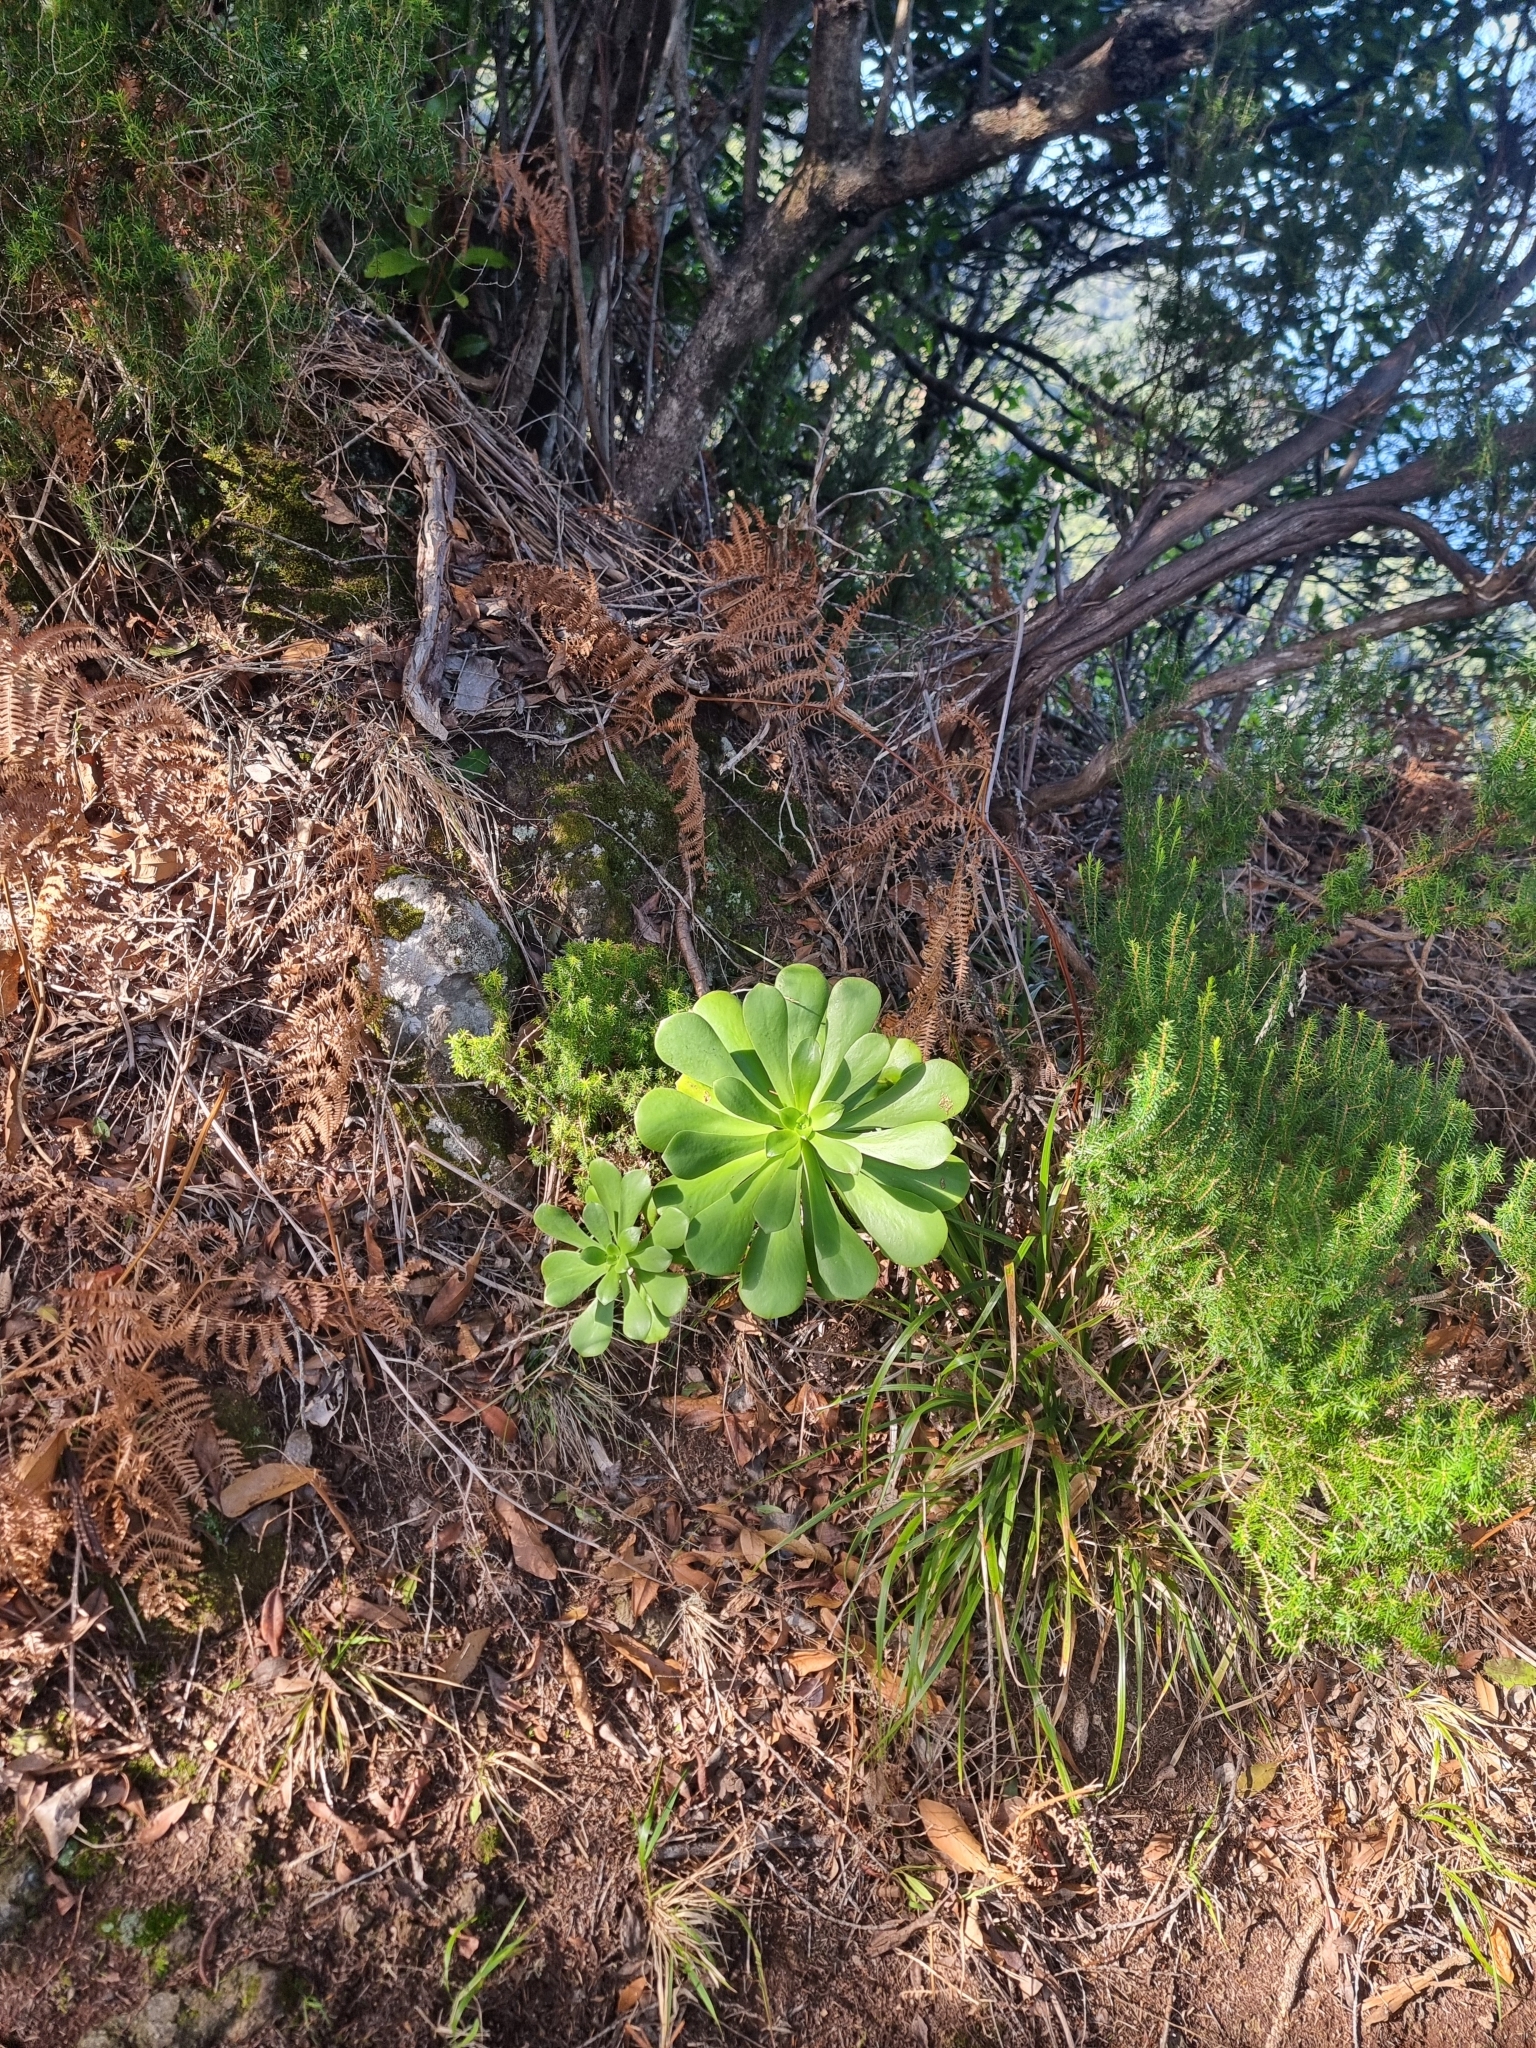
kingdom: Plantae
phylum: Tracheophyta
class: Magnoliopsida
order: Saxifragales
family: Crassulaceae
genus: Aeonium
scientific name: Aeonium glutinosum
